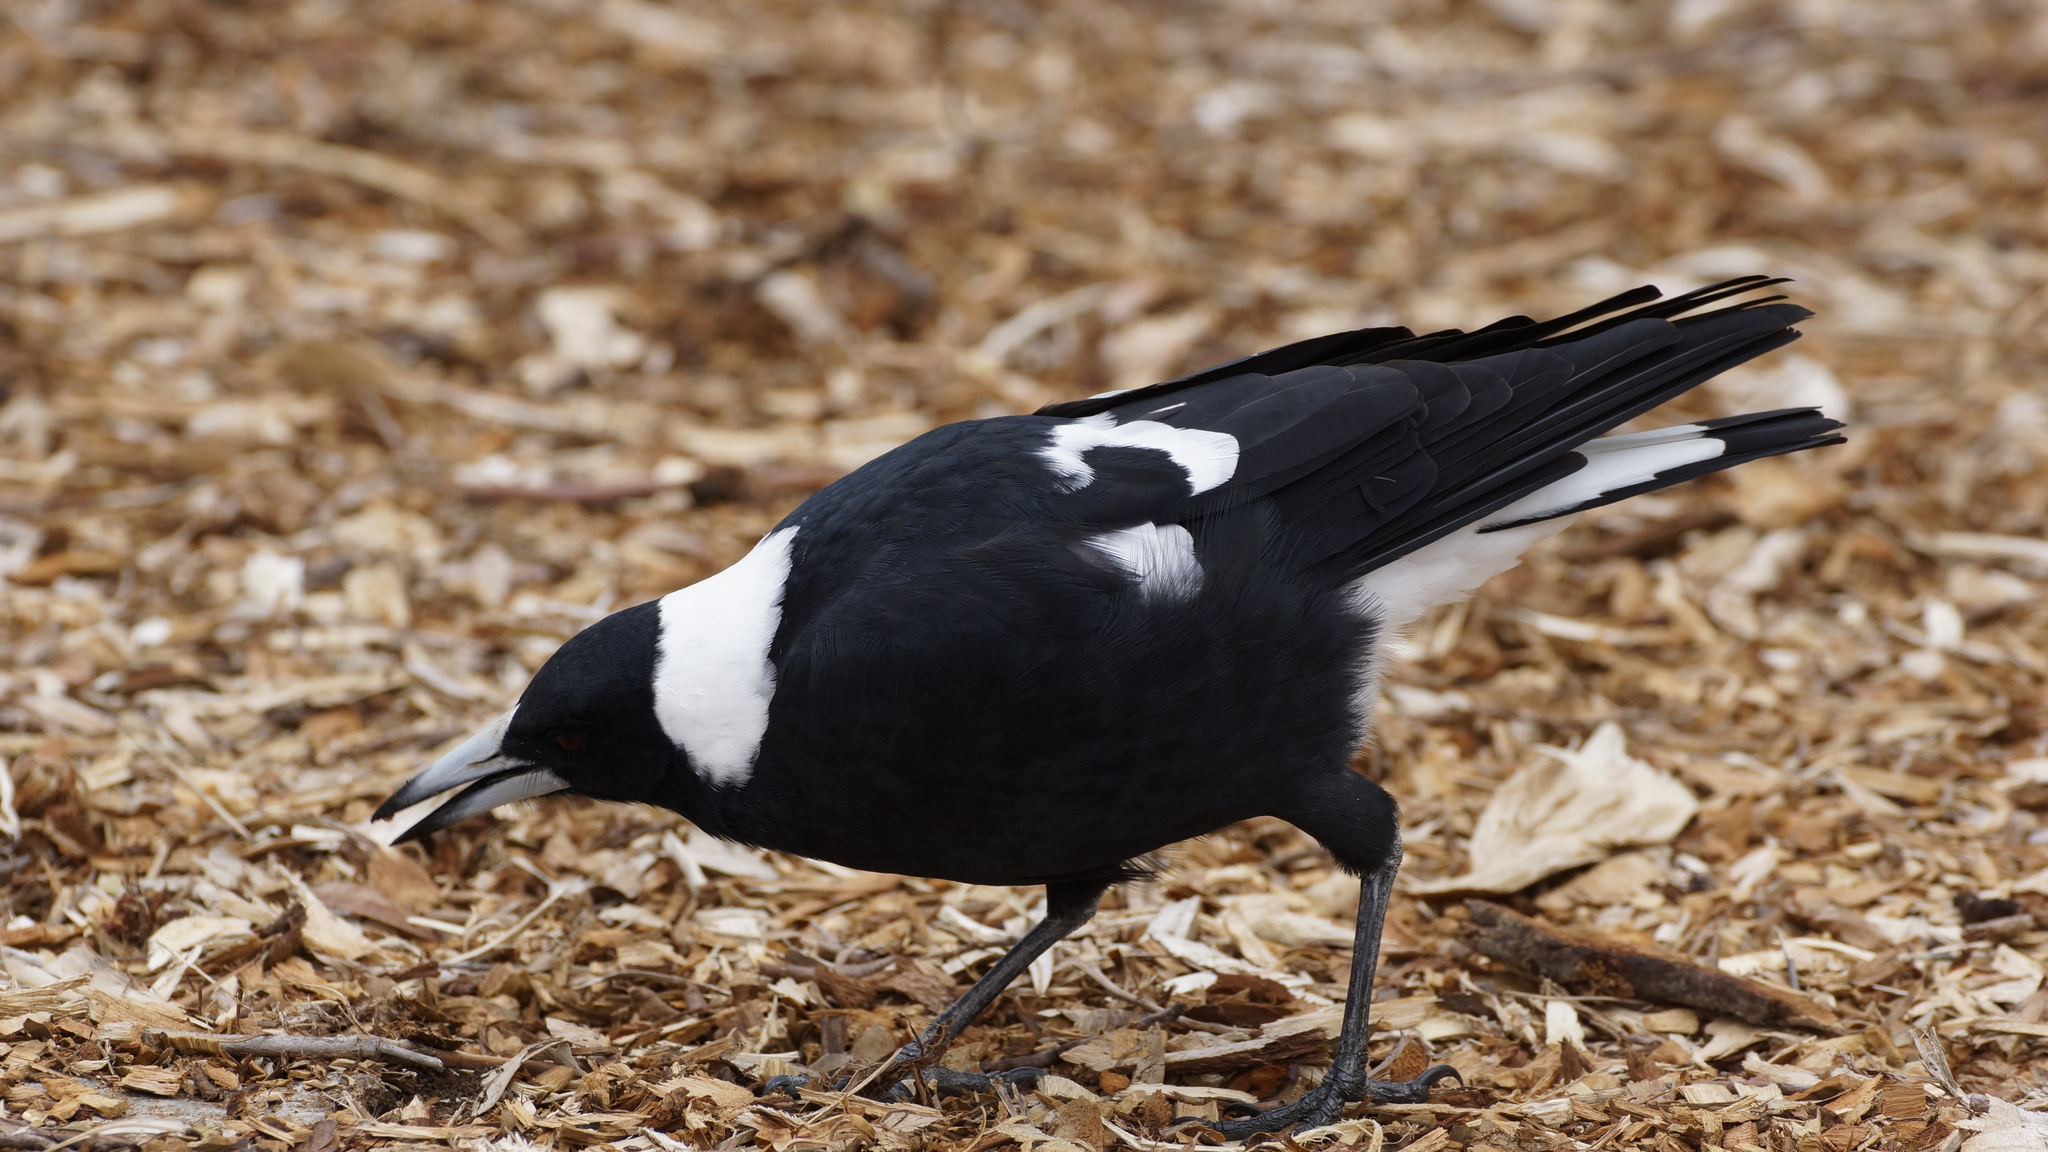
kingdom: Animalia
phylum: Chordata
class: Aves
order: Passeriformes
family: Cracticidae
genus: Gymnorhina
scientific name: Gymnorhina tibicen
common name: Australian magpie
